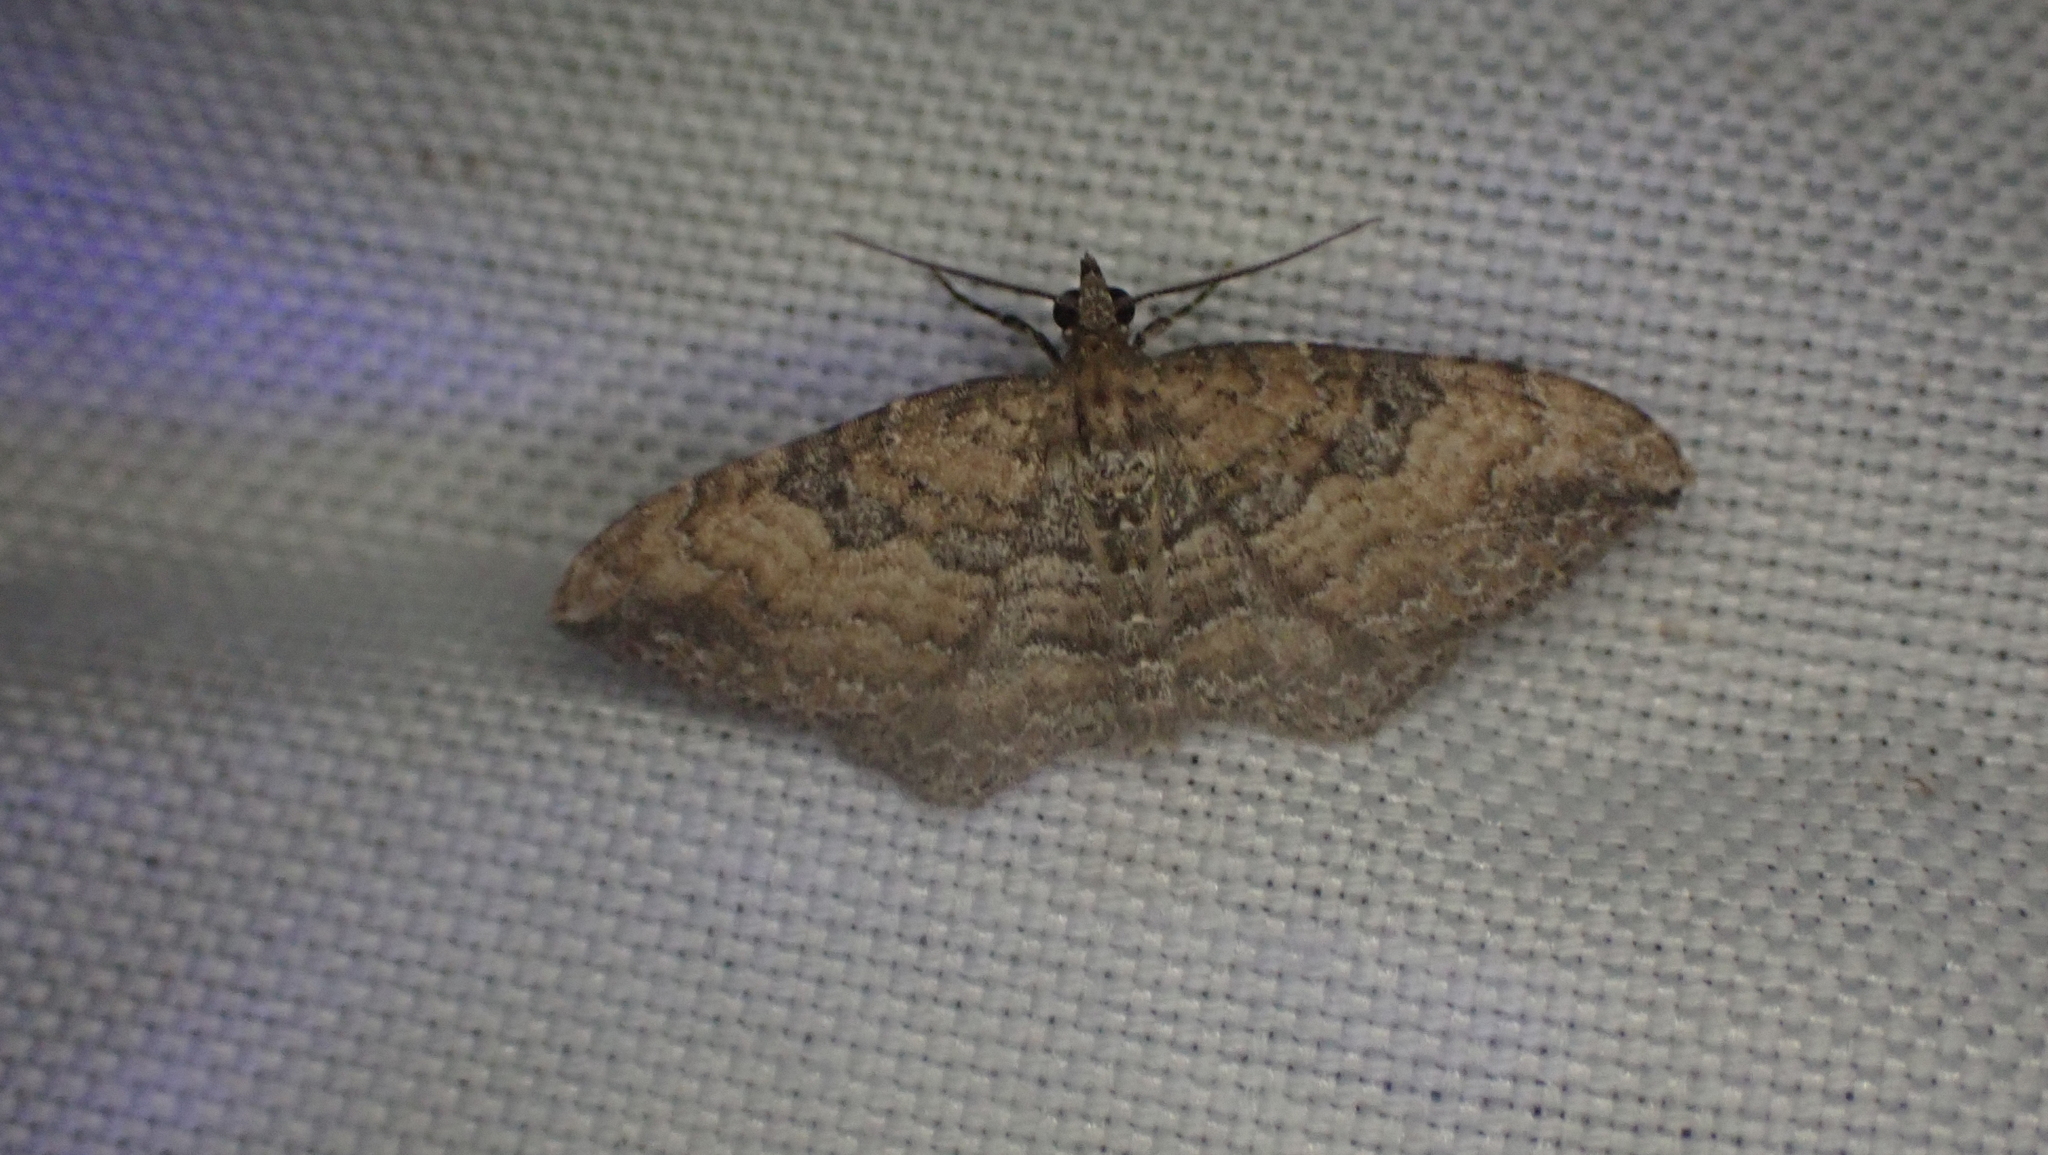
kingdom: Animalia
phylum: Arthropoda
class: Insecta
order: Lepidoptera
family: Geometridae
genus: Orthonama
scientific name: Orthonama obstipata
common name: The gem
